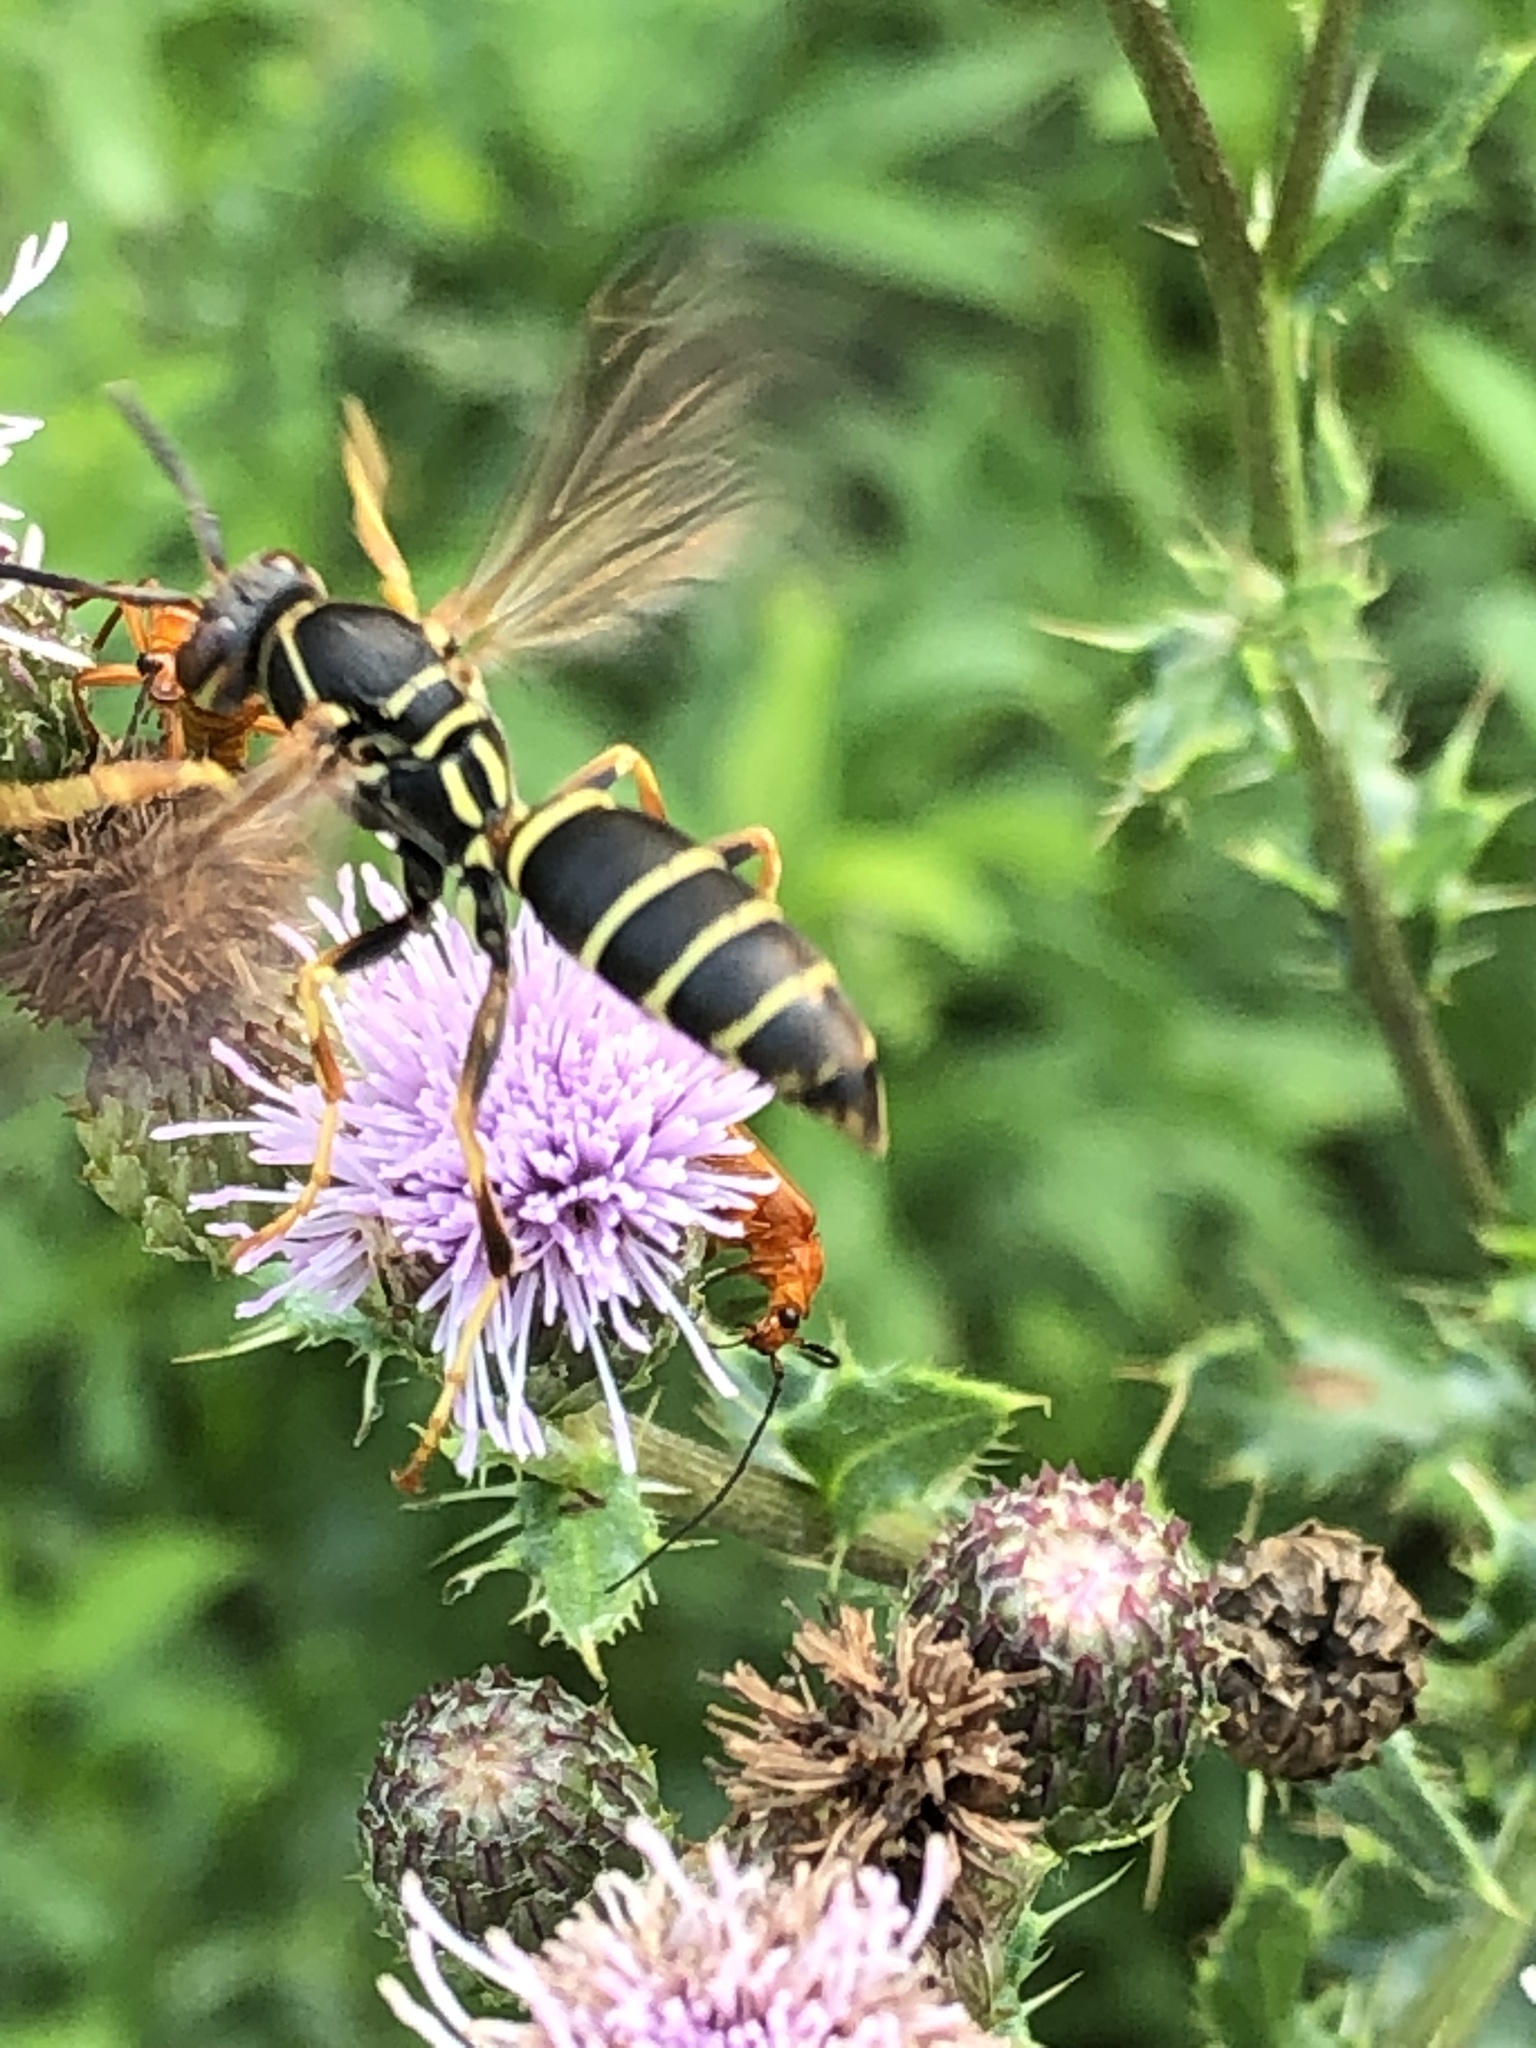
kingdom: Animalia
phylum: Arthropoda
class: Insecta
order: Hymenoptera
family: Eumenidae
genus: Polistes
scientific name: Polistes fuscatus
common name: Dark paper wasp
